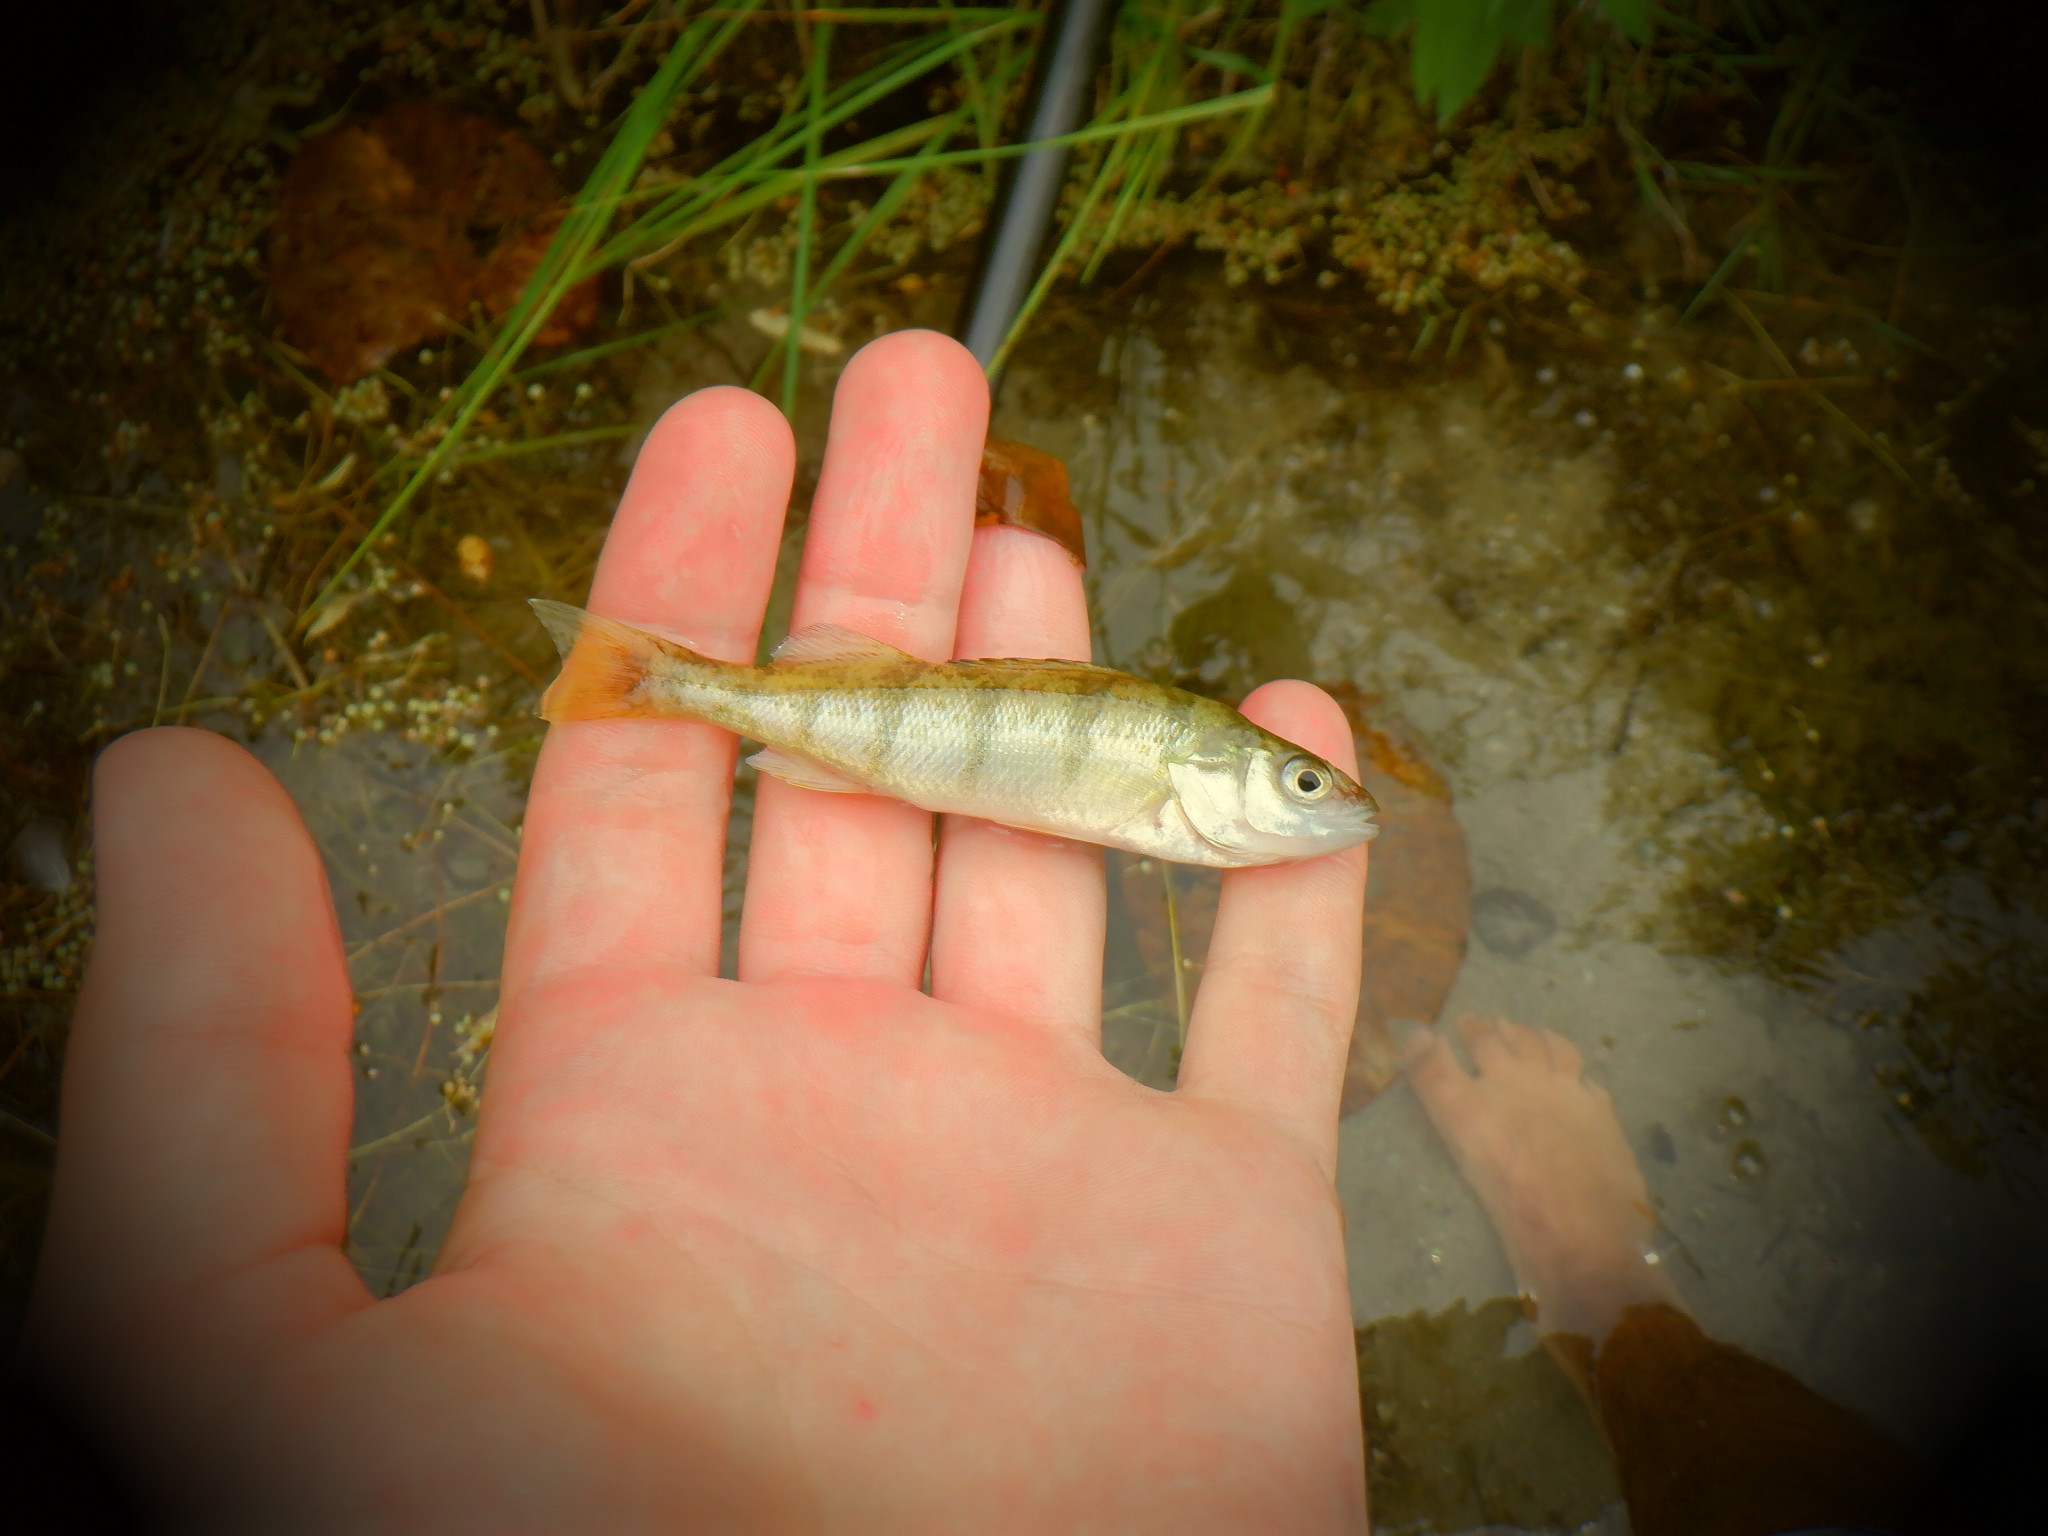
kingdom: Animalia
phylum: Chordata
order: Perciformes
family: Percidae
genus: Perca
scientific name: Perca flavescens
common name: Yellow perch
